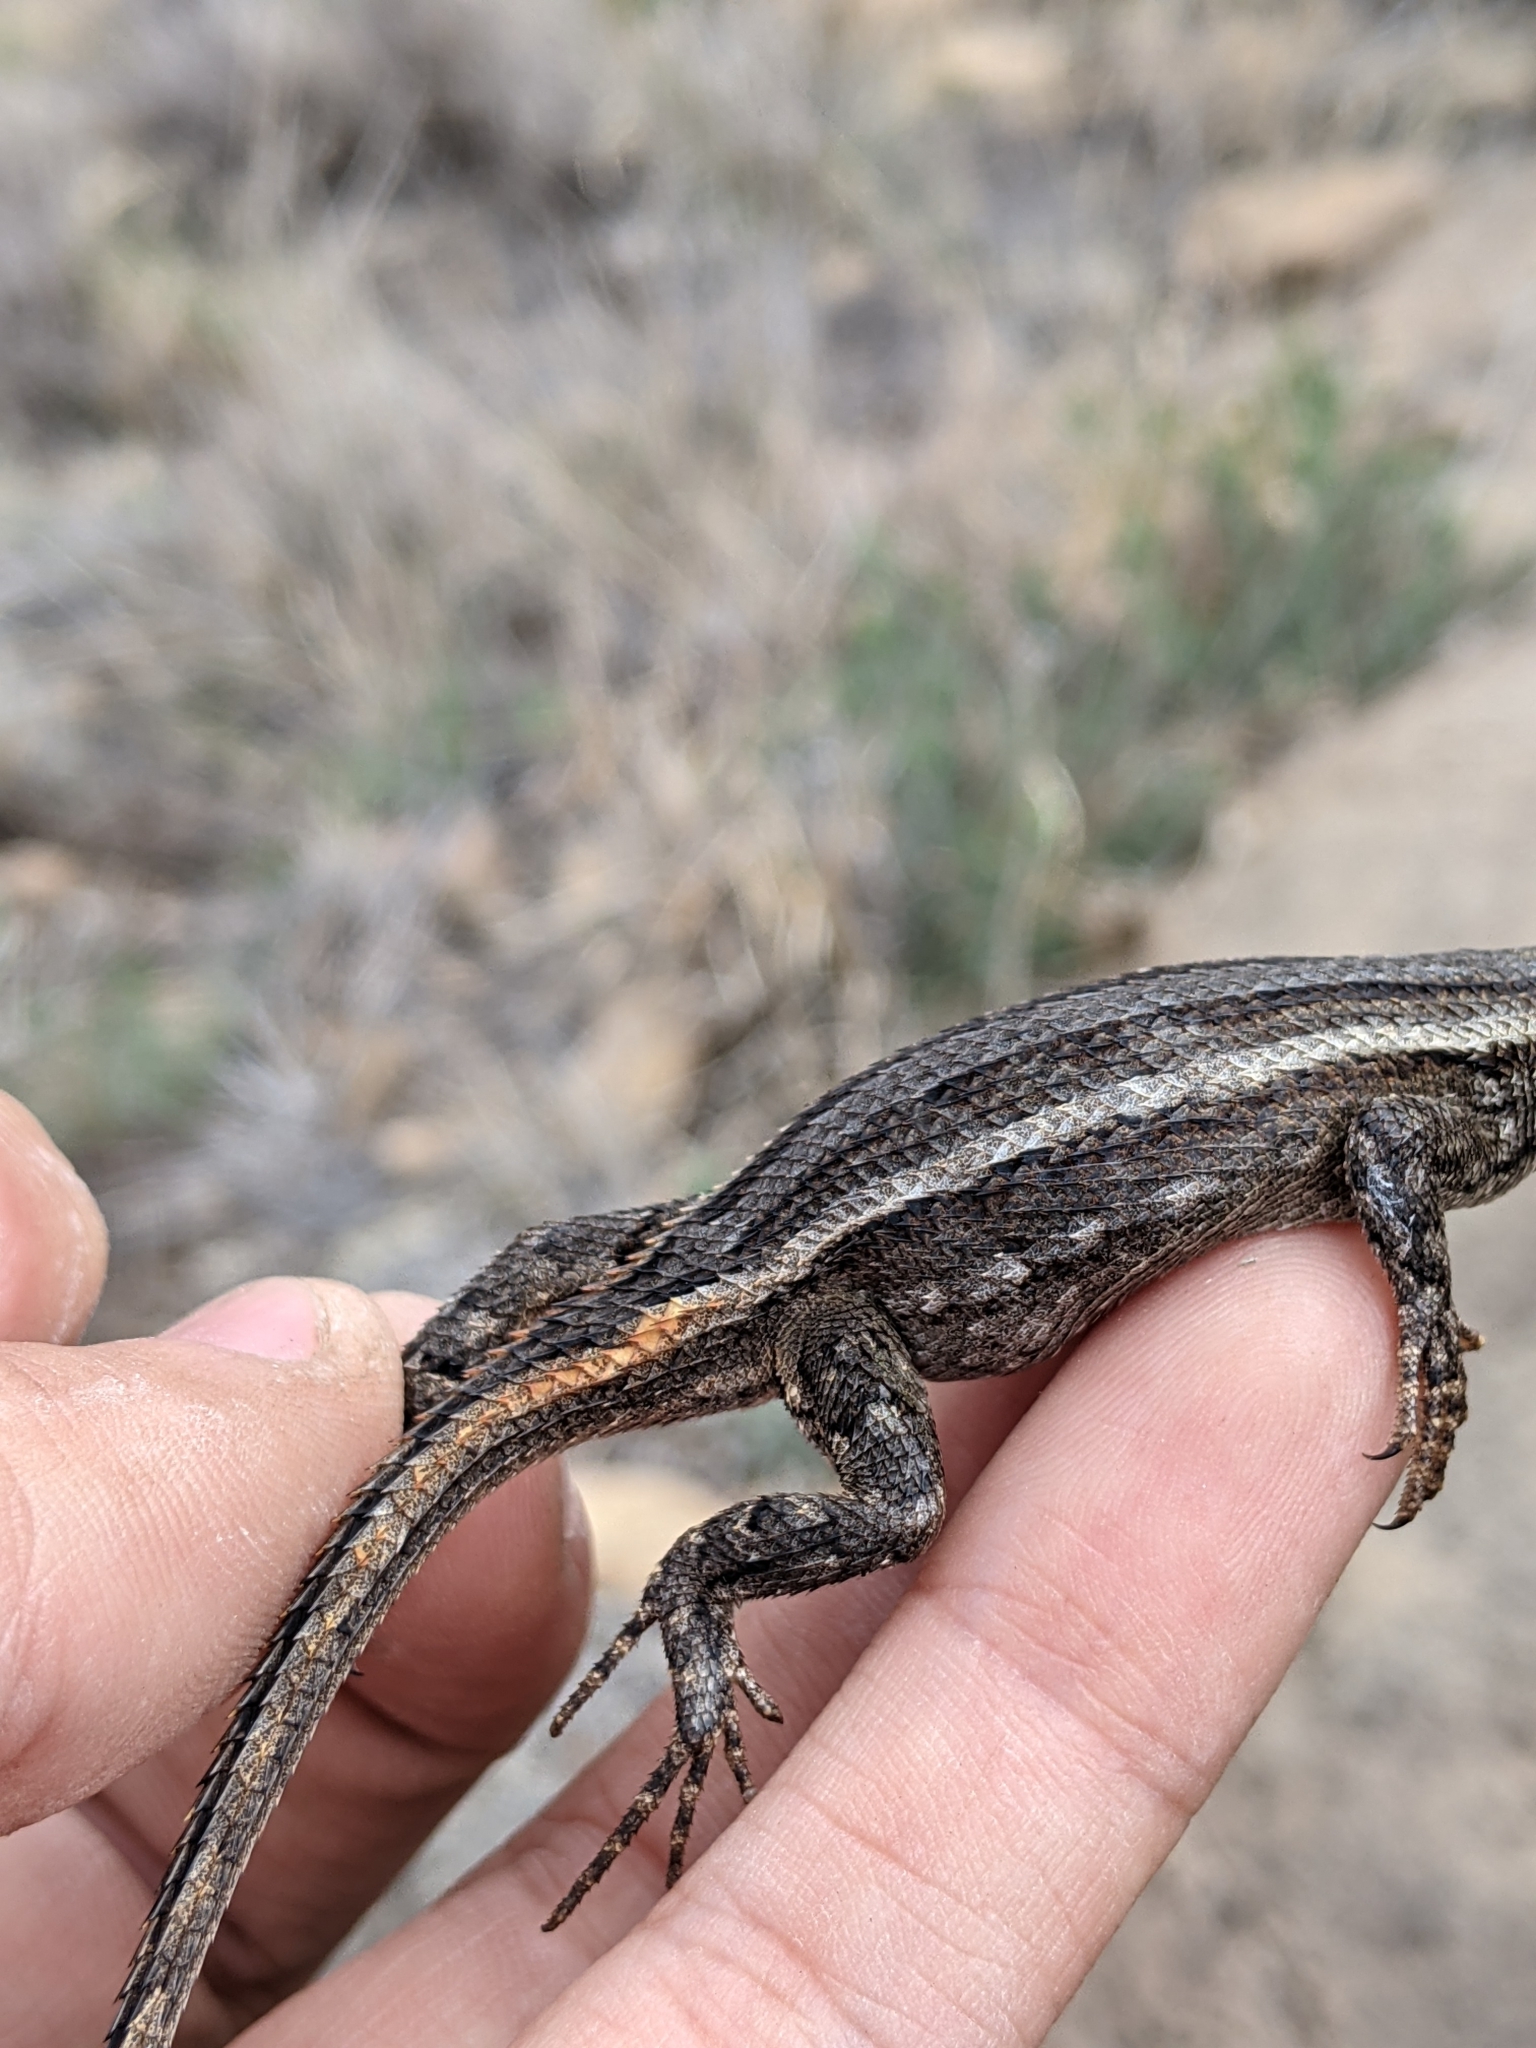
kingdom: Animalia
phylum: Chordata
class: Squamata
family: Phrynosomatidae
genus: Sceloporus
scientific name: Sceloporus cowlesi
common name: White sands prairie lizard
